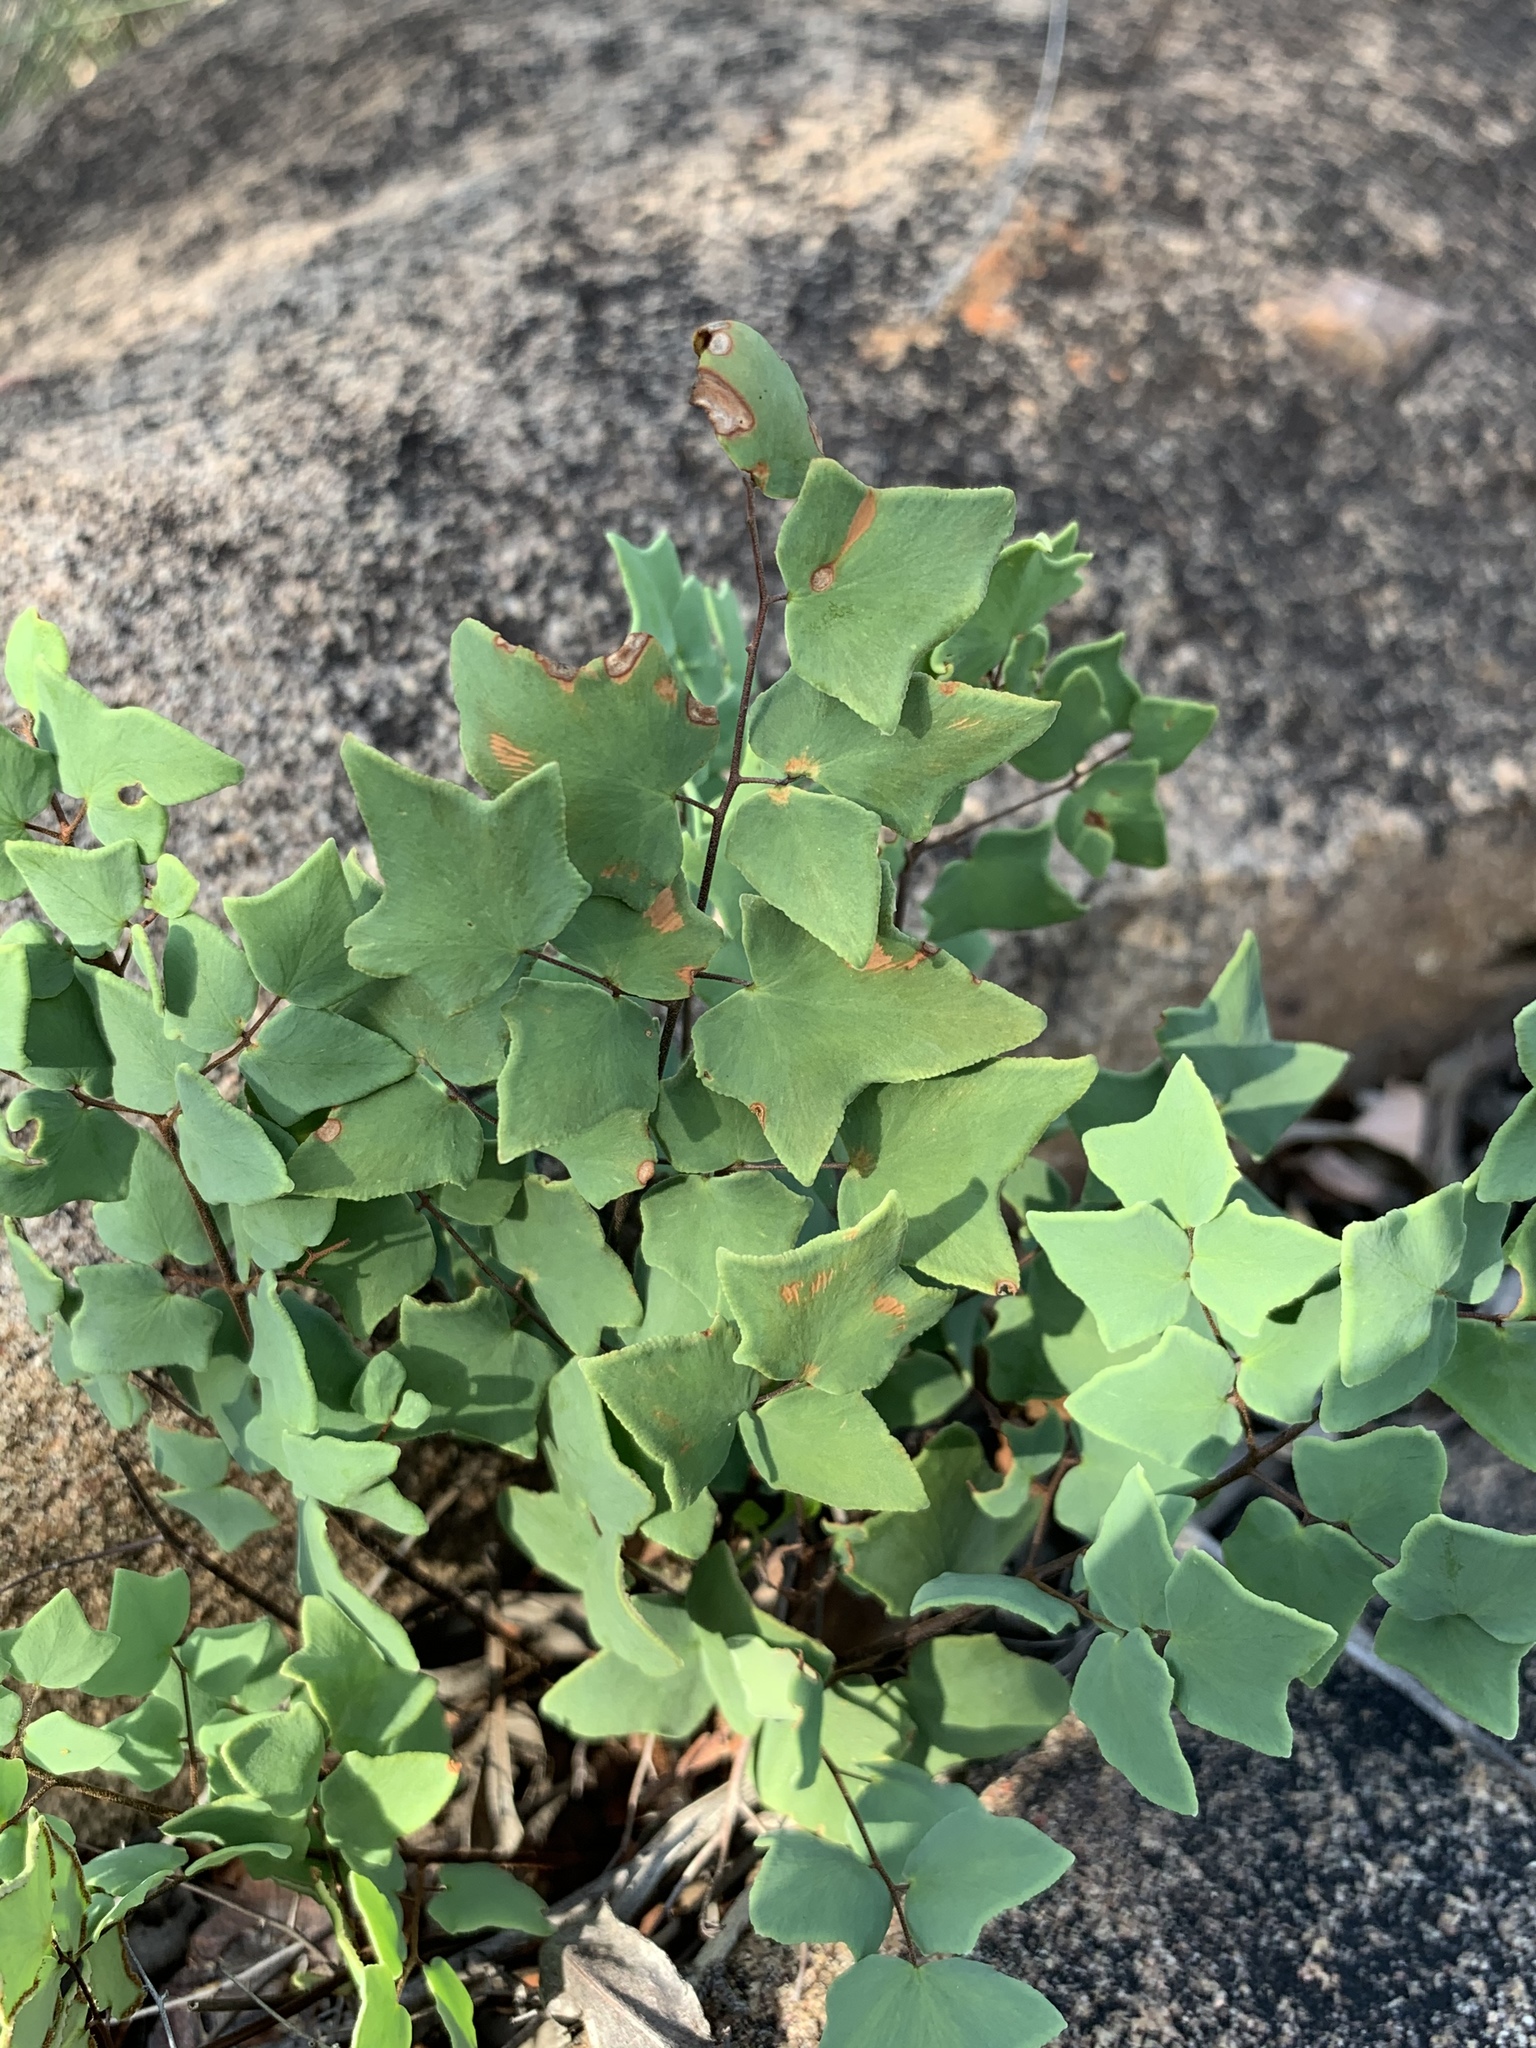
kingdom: Plantae
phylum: Tracheophyta
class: Polypodiopsida
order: Polypodiales
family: Pteridaceae
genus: Pellaea
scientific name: Pellaea calomelanos
